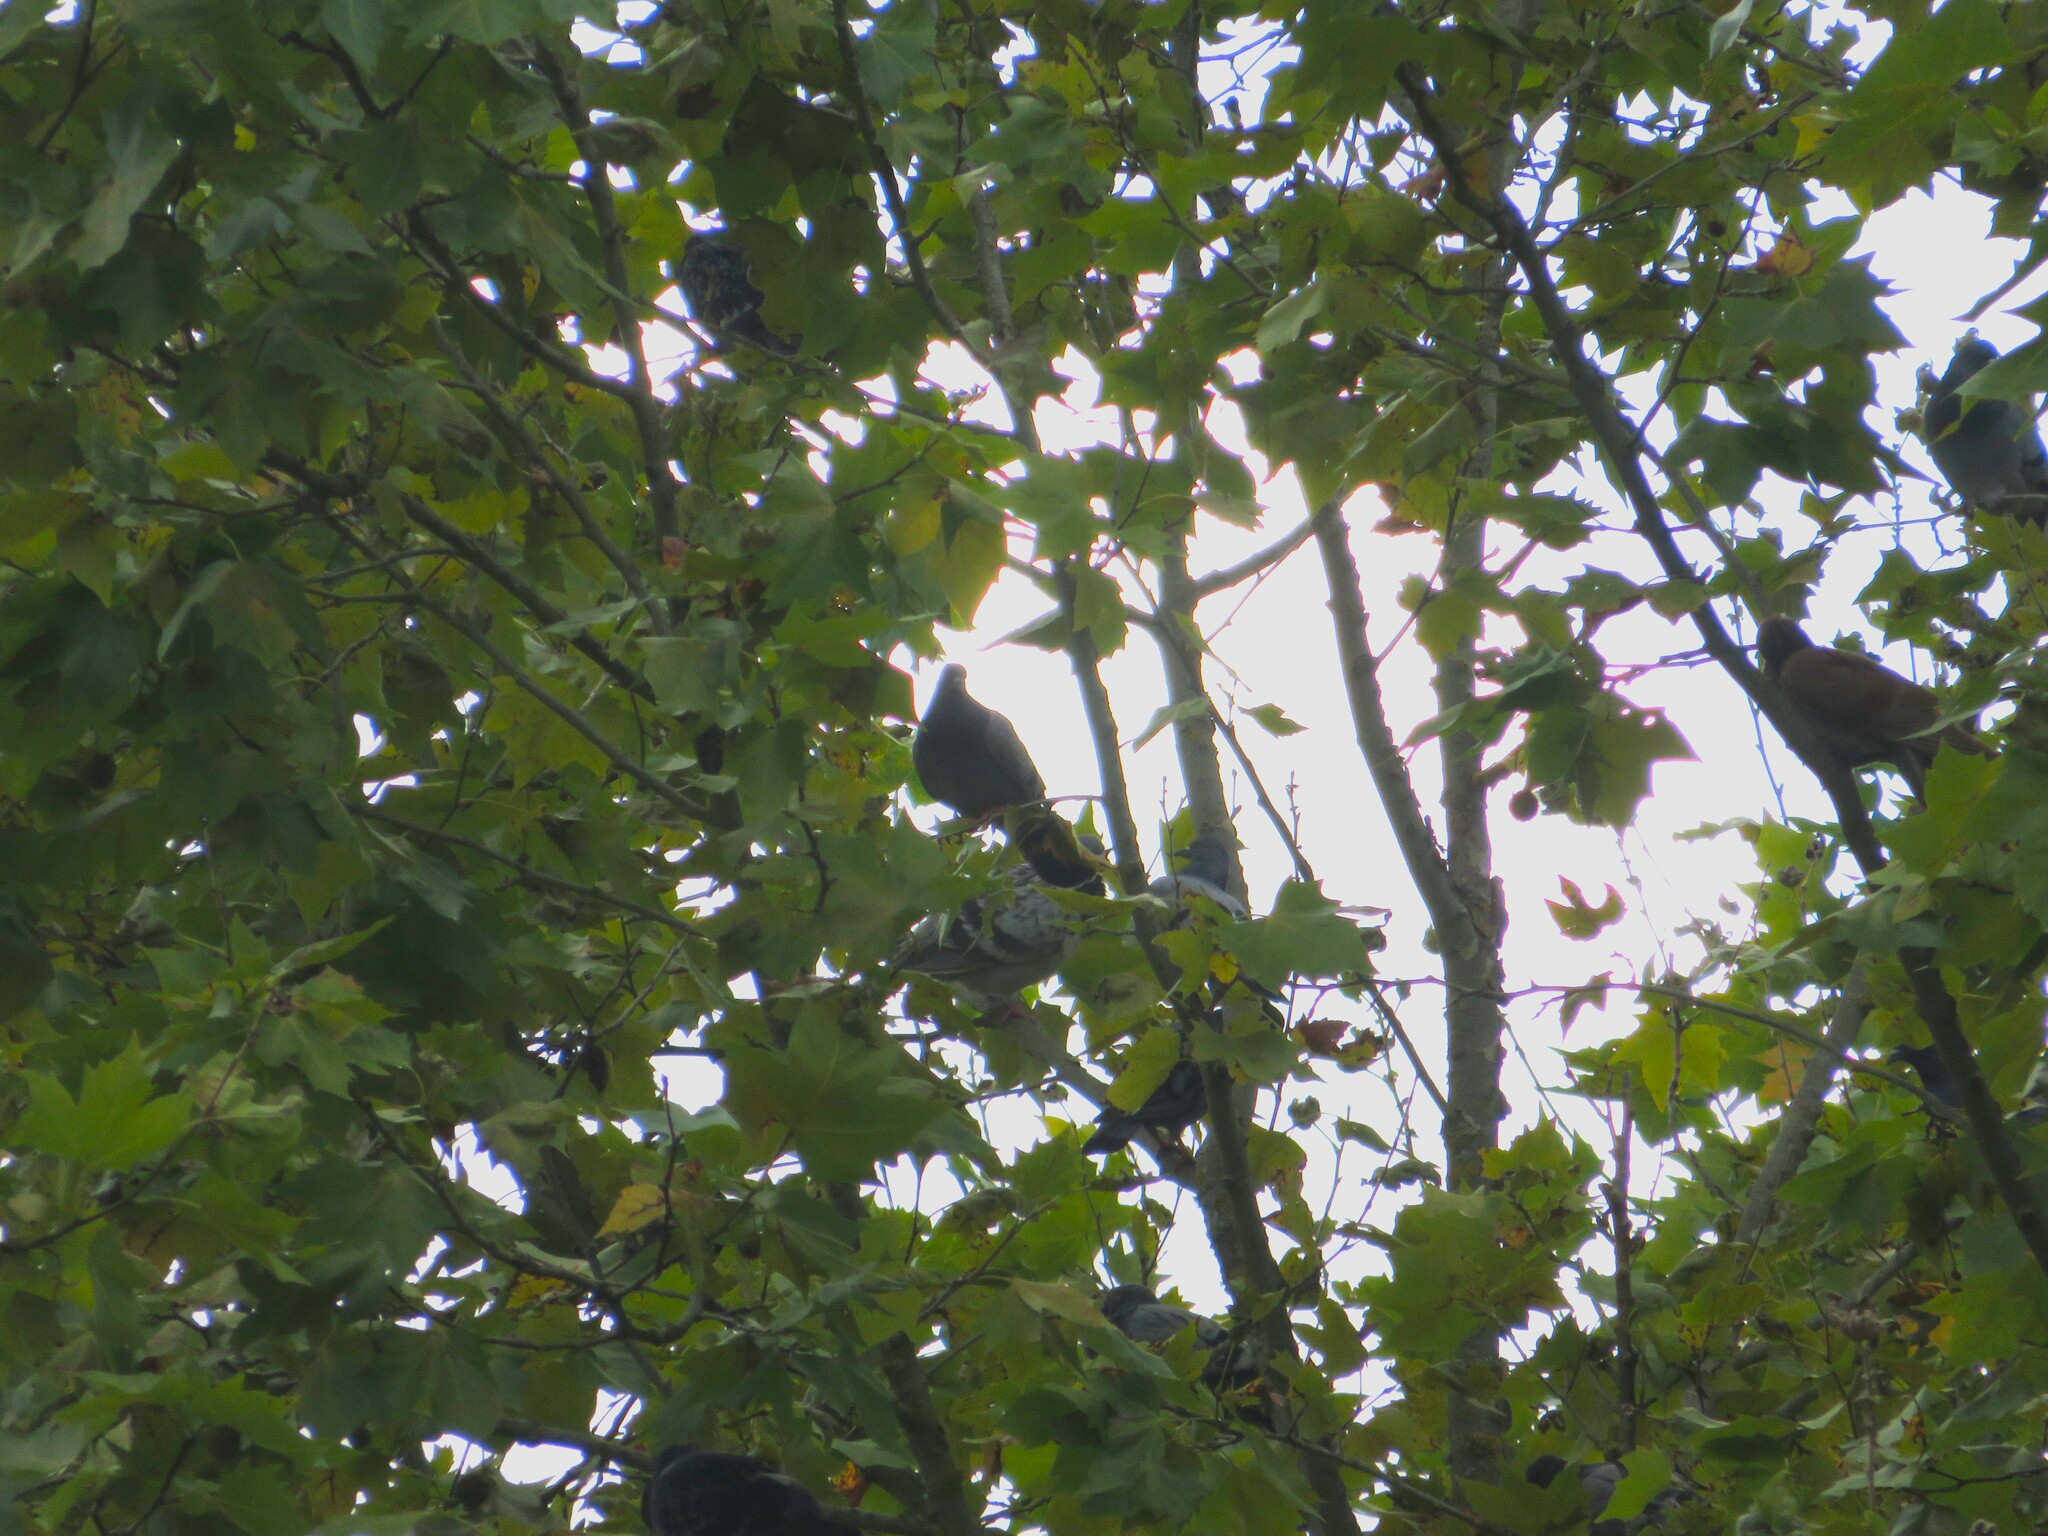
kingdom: Animalia
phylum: Chordata
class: Aves
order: Columbiformes
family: Columbidae
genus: Columba
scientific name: Columba livia
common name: Rock pigeon
